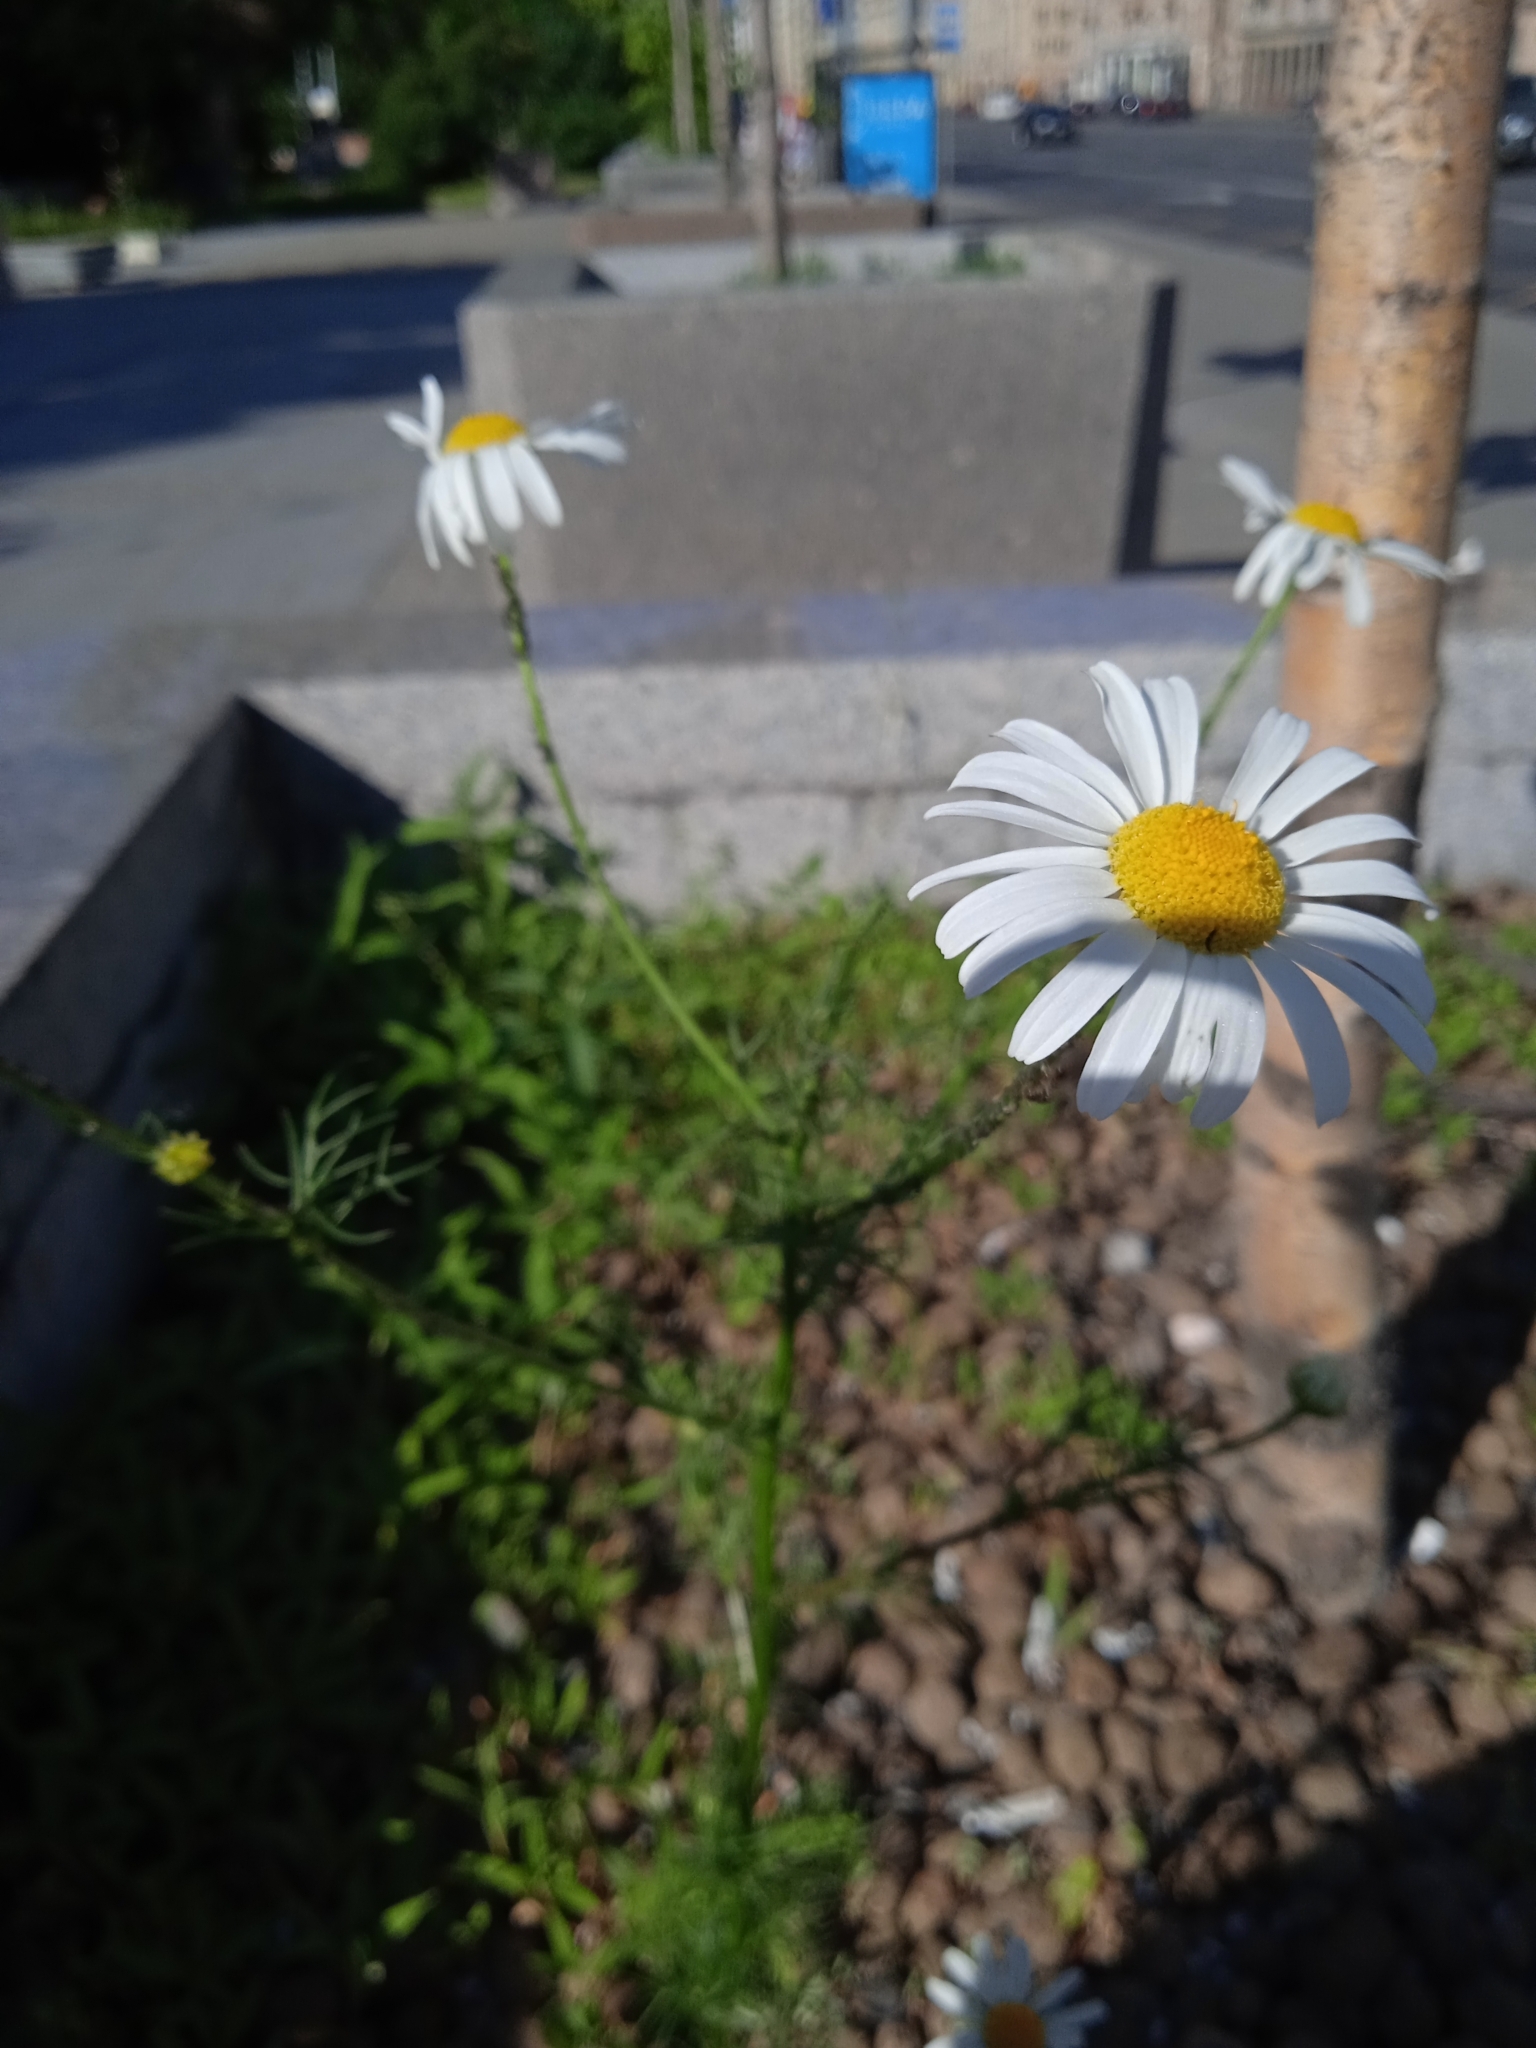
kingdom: Plantae
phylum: Tracheophyta
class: Magnoliopsida
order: Asterales
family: Asteraceae
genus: Tripleurospermum
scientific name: Tripleurospermum inodorum
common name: Scentless mayweed
